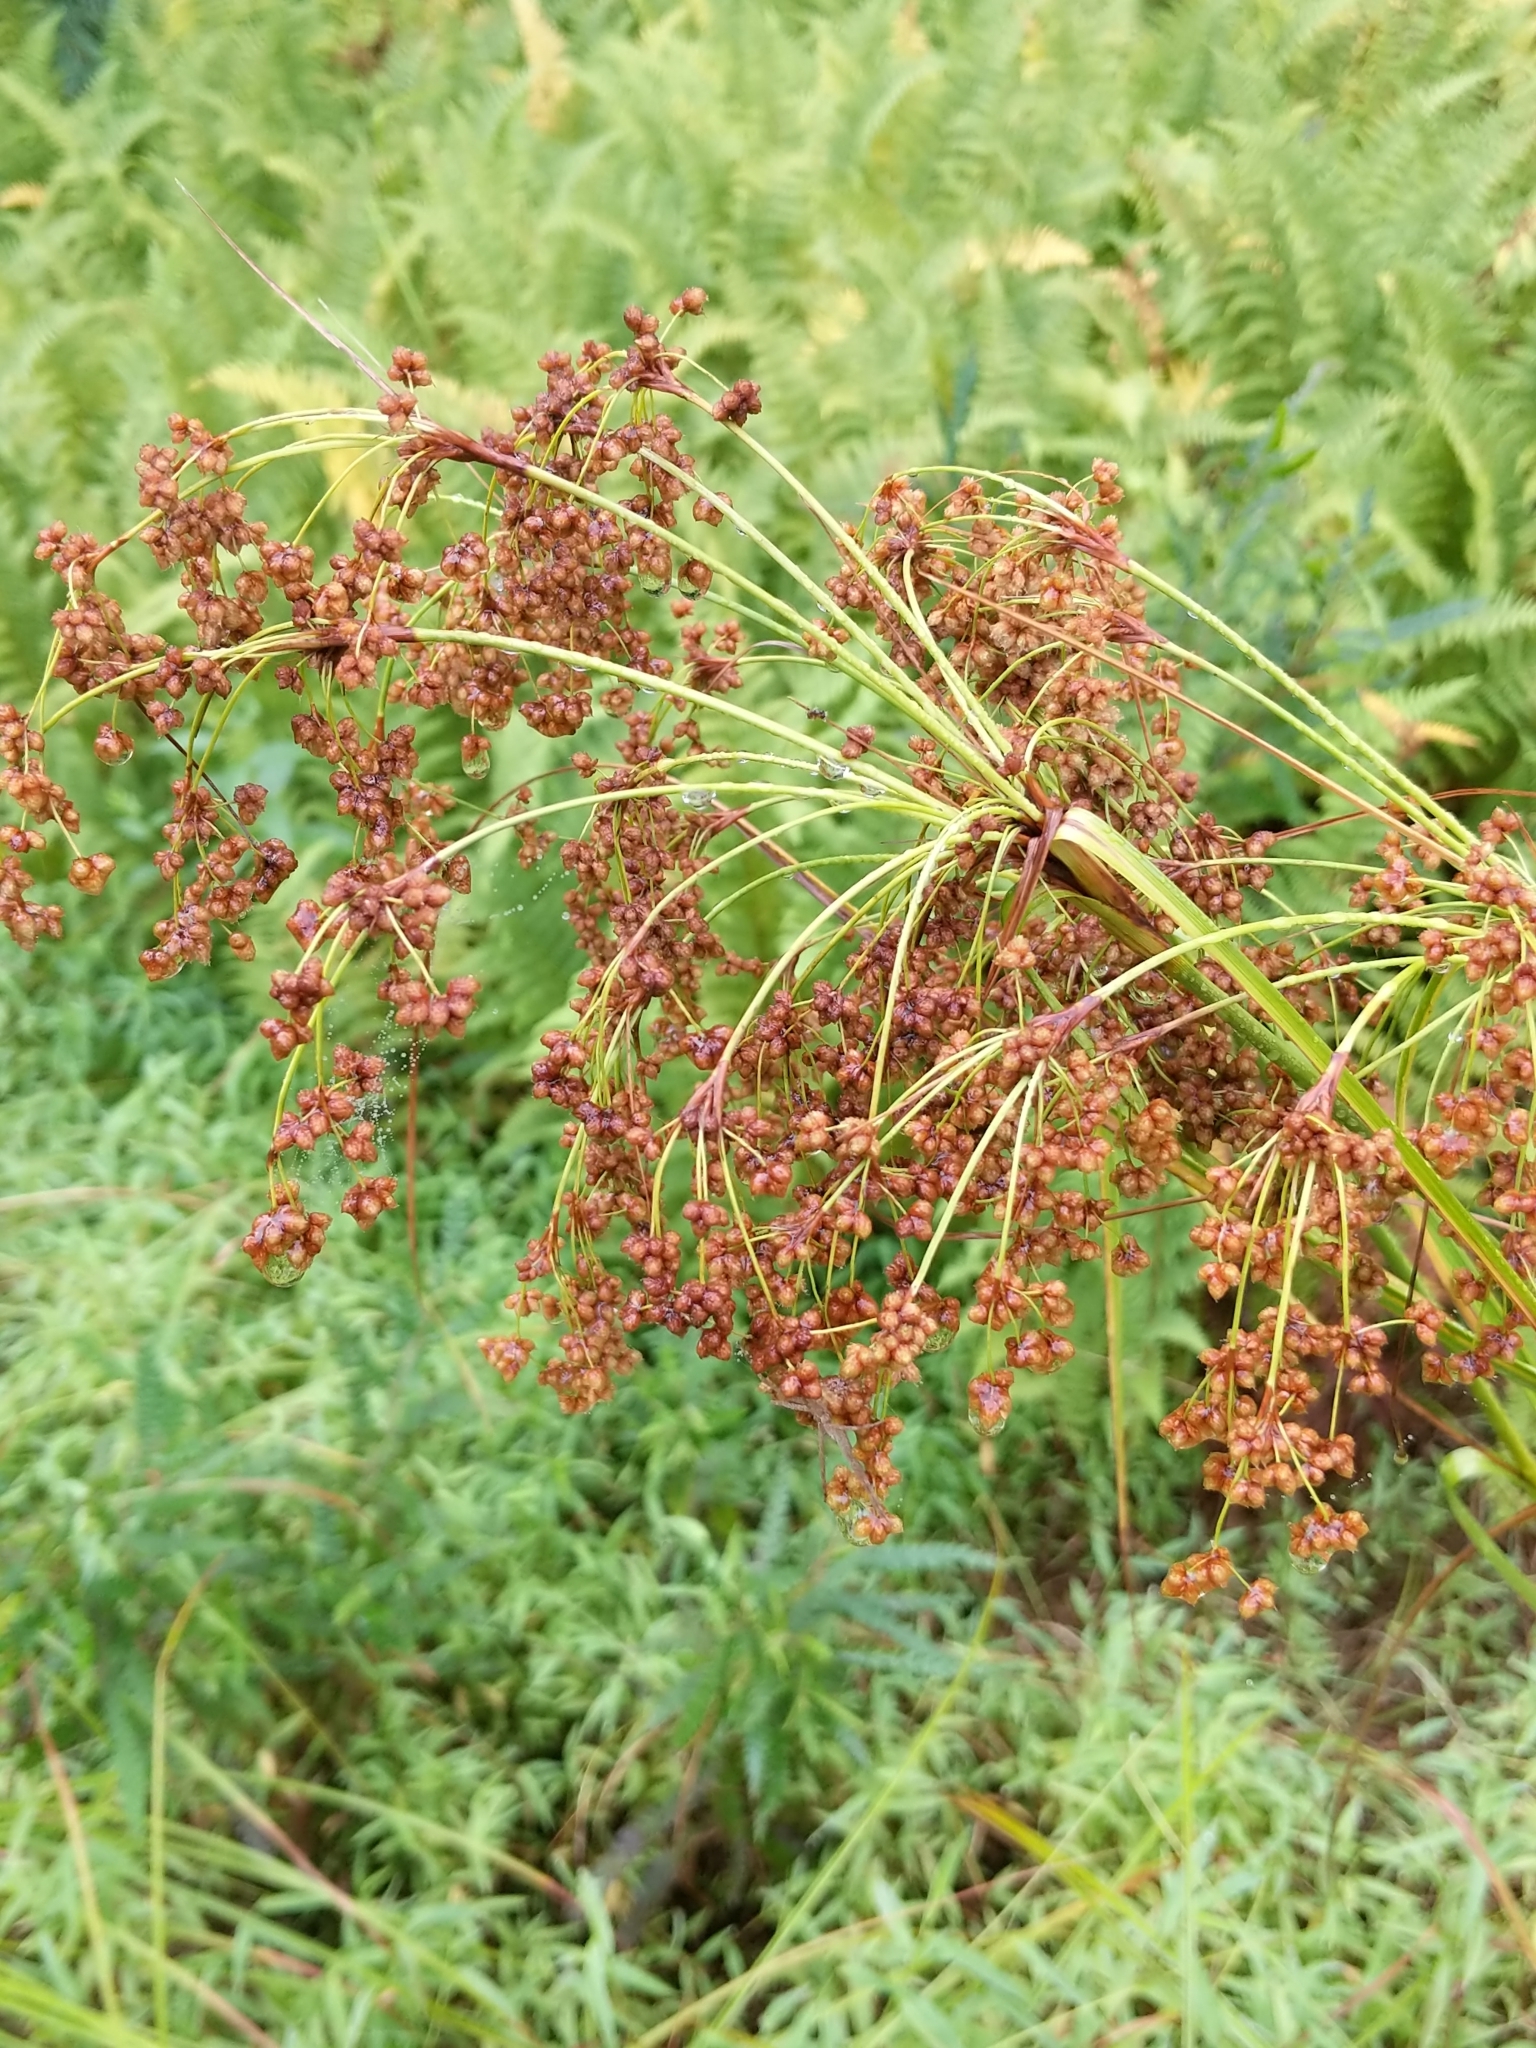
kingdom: Plantae
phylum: Tracheophyta
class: Liliopsida
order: Poales
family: Cyperaceae
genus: Scirpus
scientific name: Scirpus cyperinus
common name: Black-sheathed bulrush
